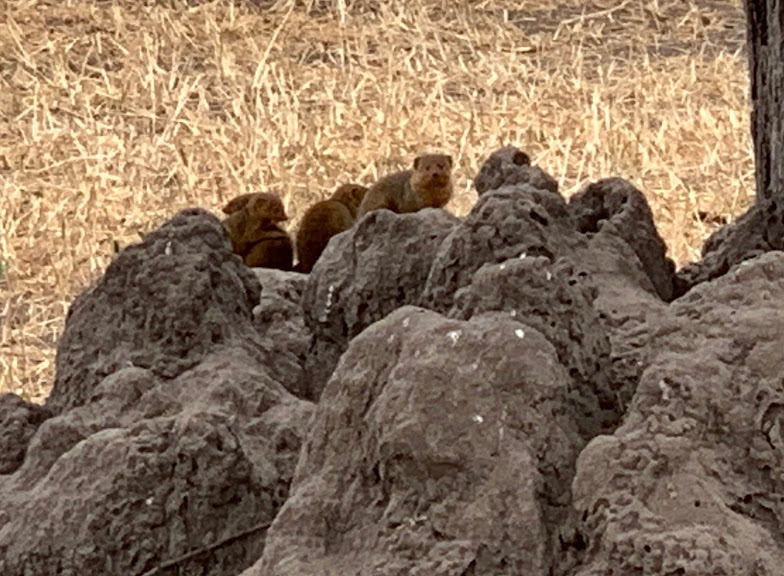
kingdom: Animalia
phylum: Chordata
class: Mammalia
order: Carnivora
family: Herpestidae
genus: Helogale
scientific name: Helogale parvula
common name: Common dwarf mongoose
